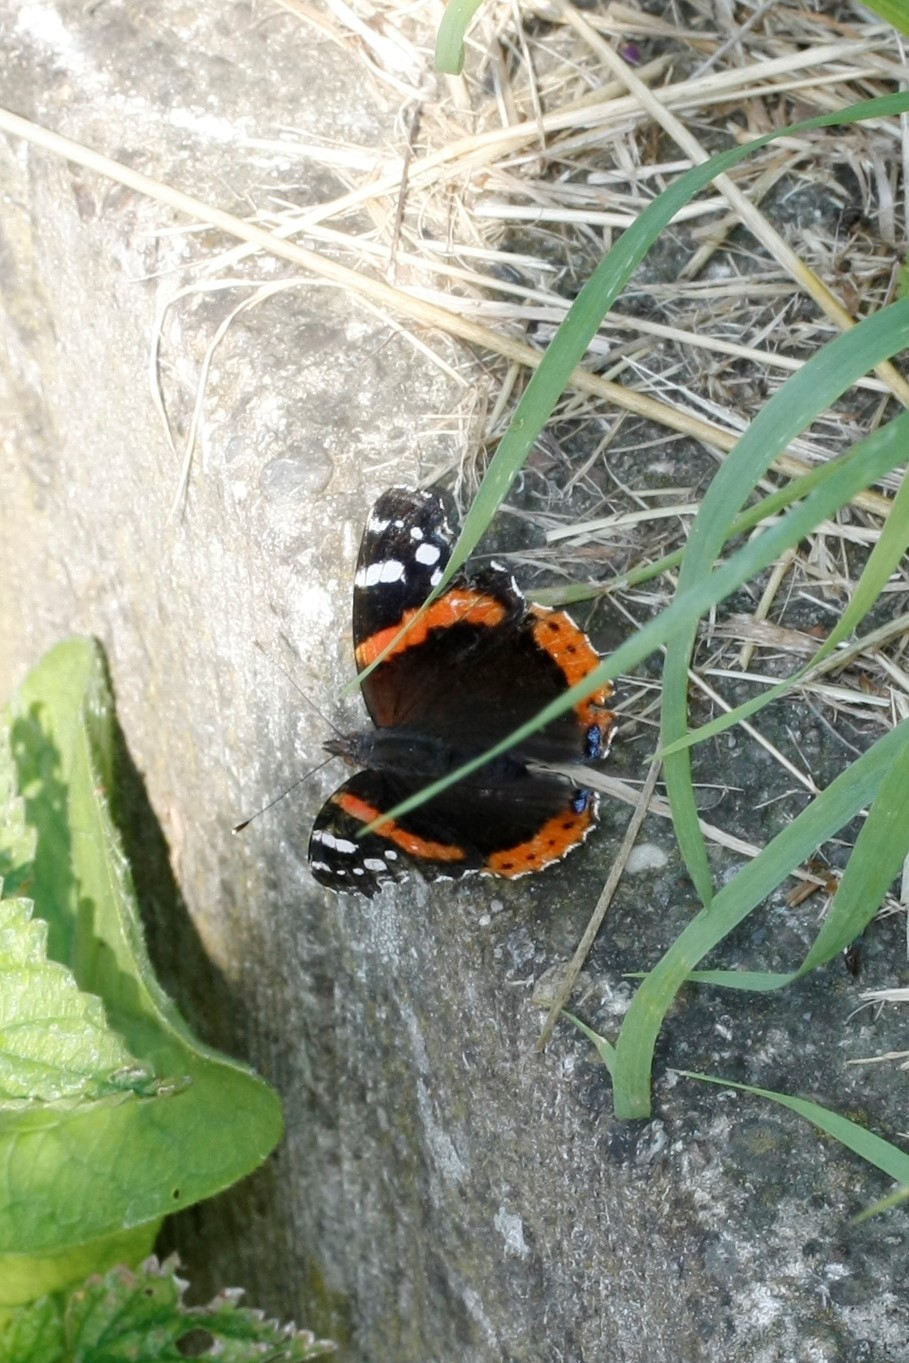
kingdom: Animalia
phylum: Arthropoda
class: Insecta
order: Lepidoptera
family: Nymphalidae
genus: Vanessa
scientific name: Vanessa atalanta
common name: Red admiral
